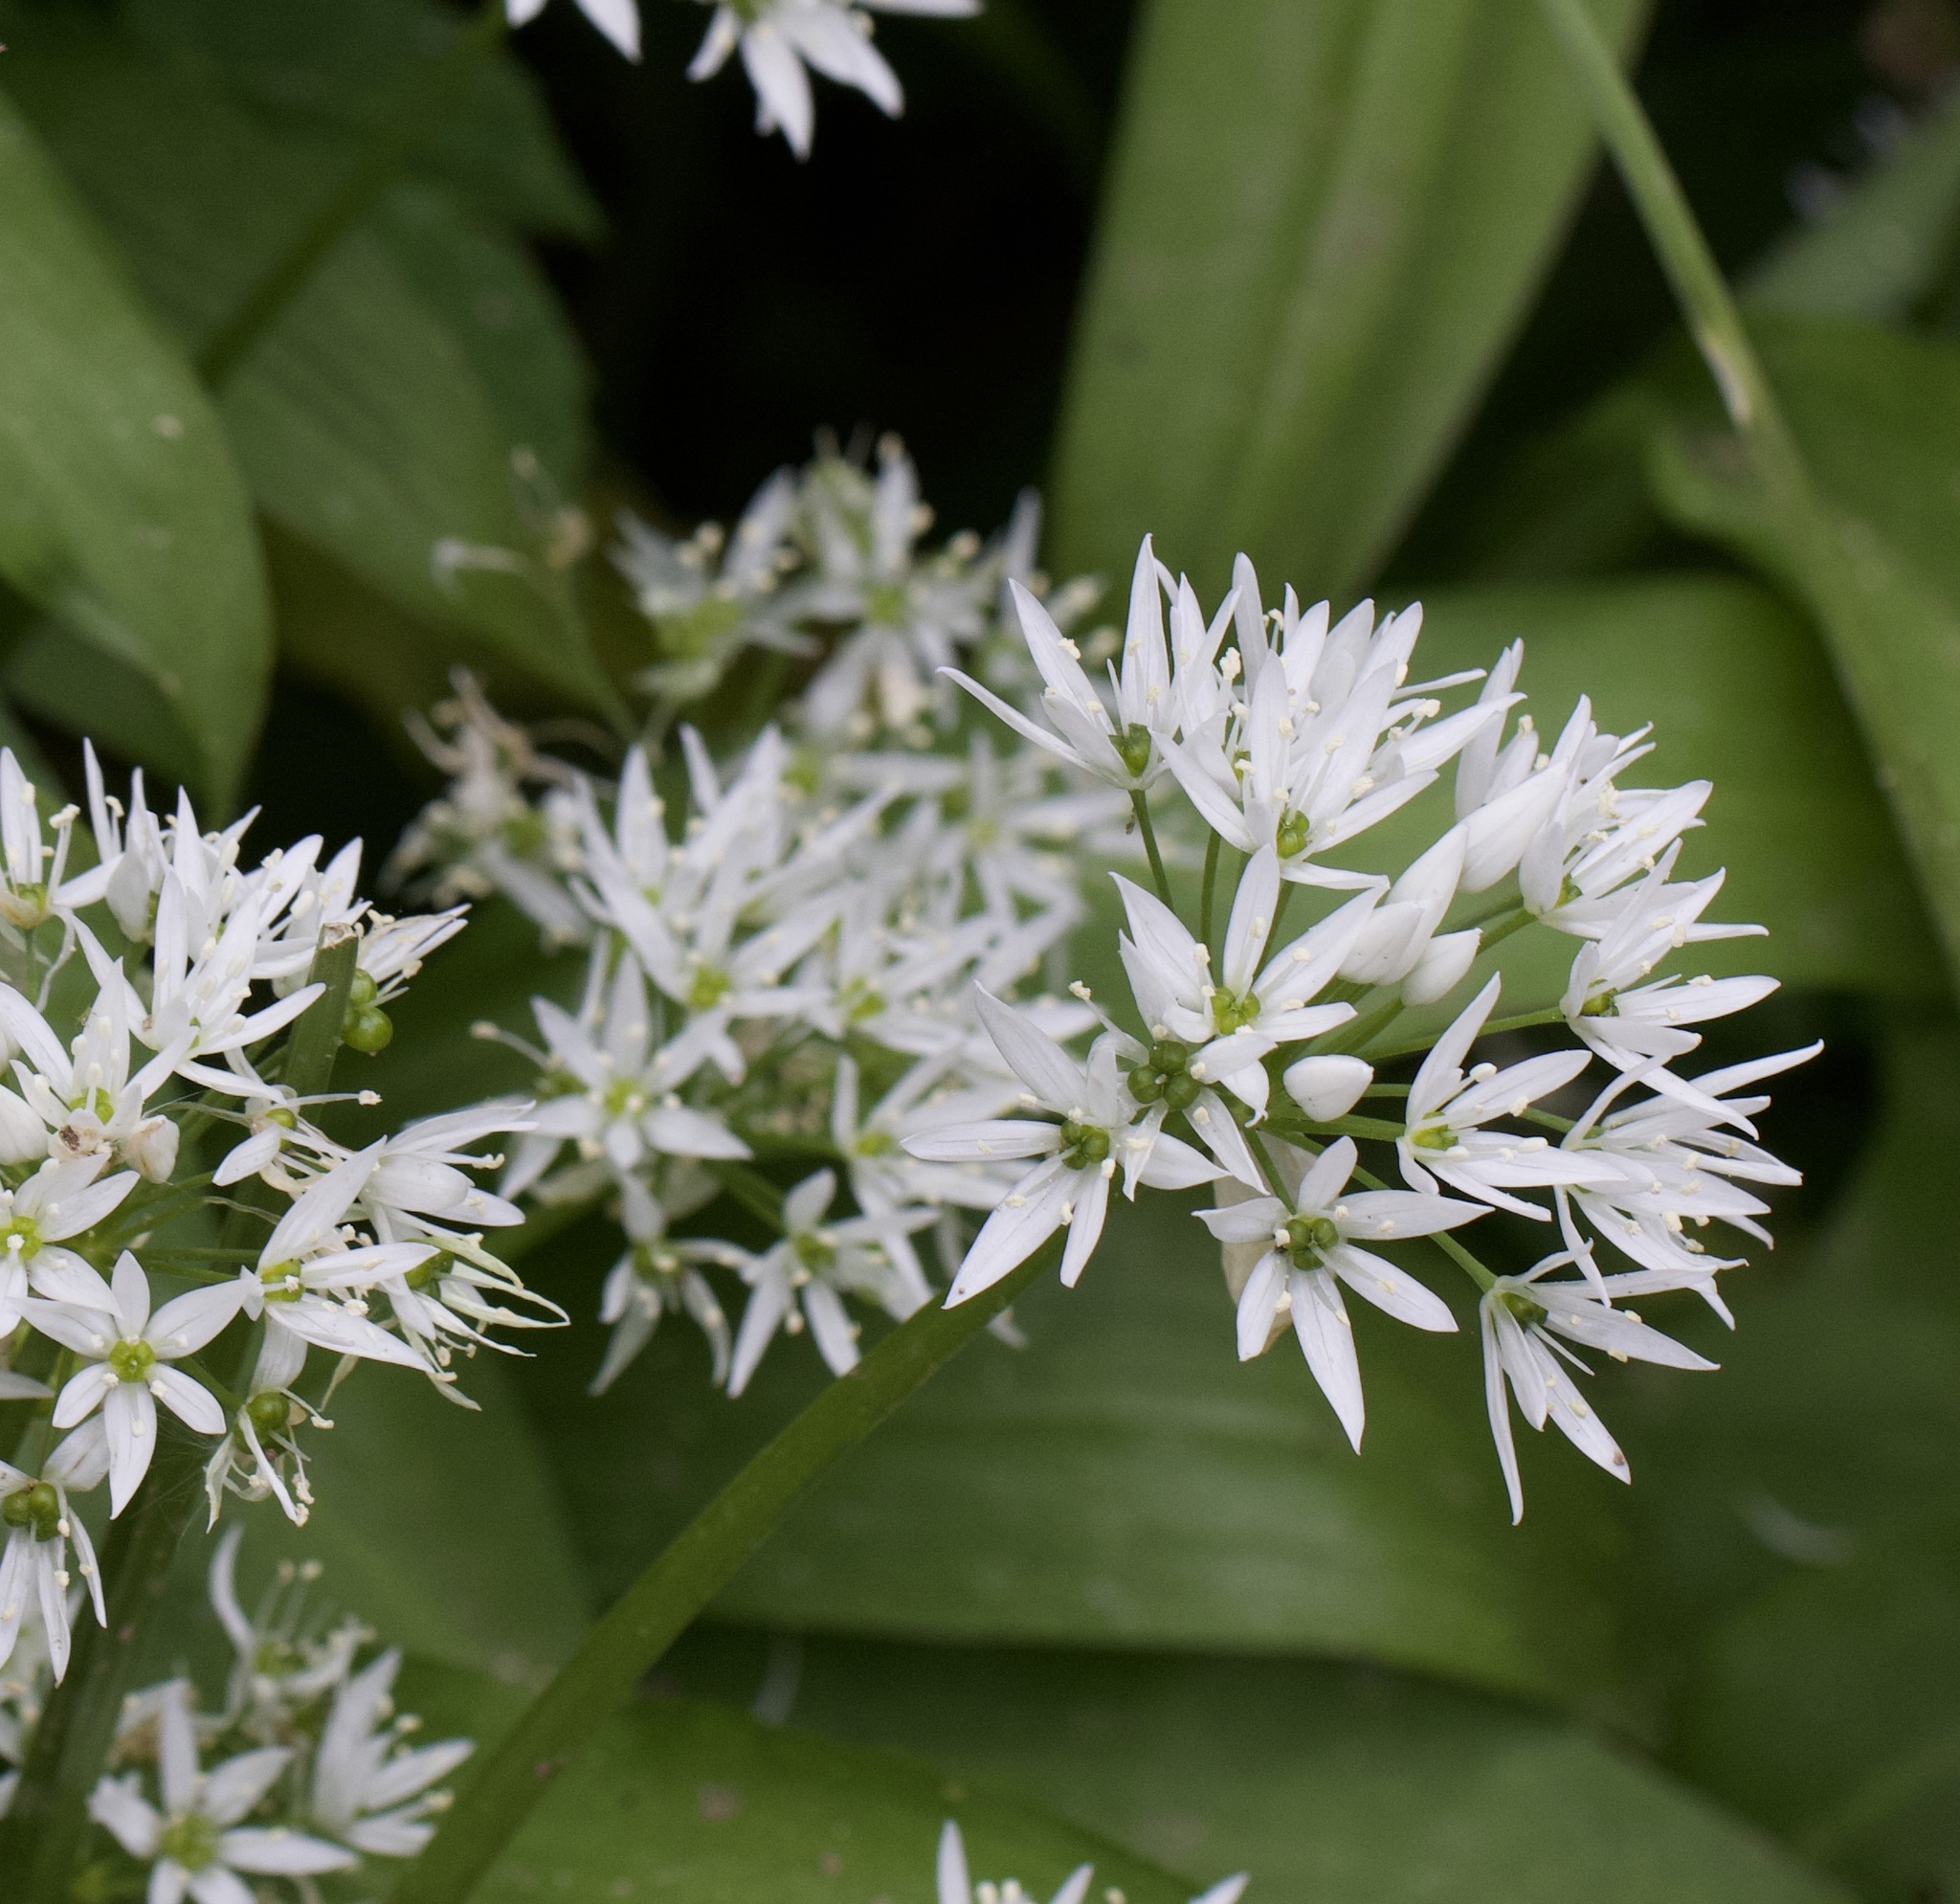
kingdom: Plantae
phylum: Tracheophyta
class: Liliopsida
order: Asparagales
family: Amaryllidaceae
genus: Allium
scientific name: Allium ursinum
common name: Ramsons
